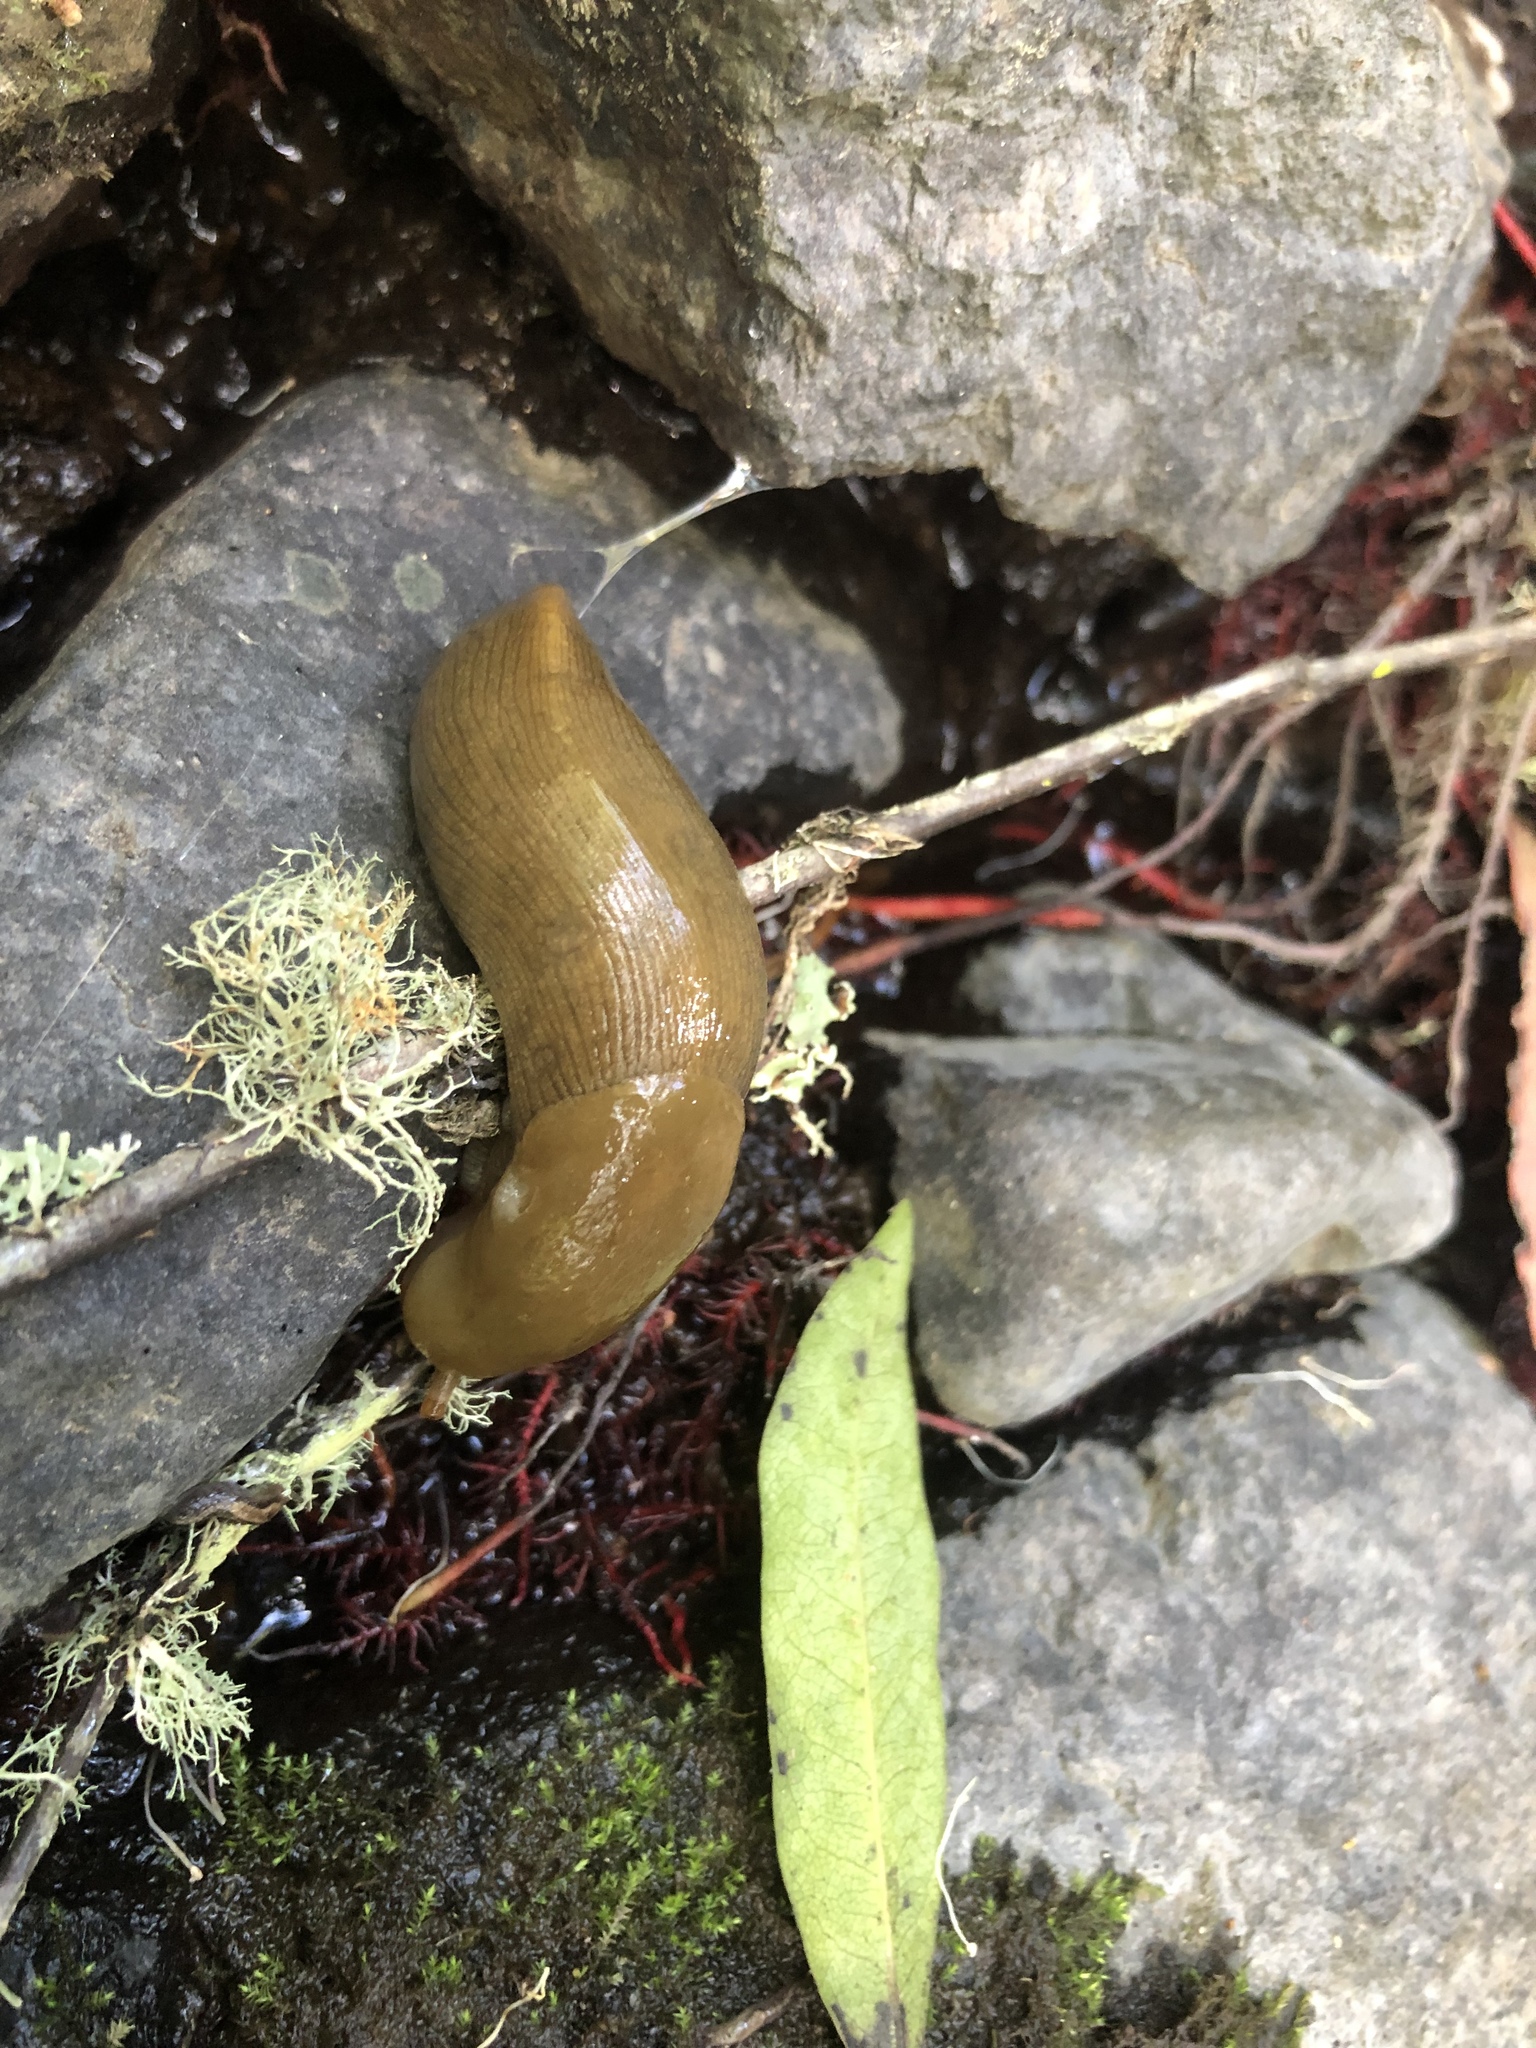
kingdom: Animalia
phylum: Mollusca
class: Gastropoda
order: Stylommatophora
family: Ariolimacidae
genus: Ariolimax
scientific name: Ariolimax buttoni
